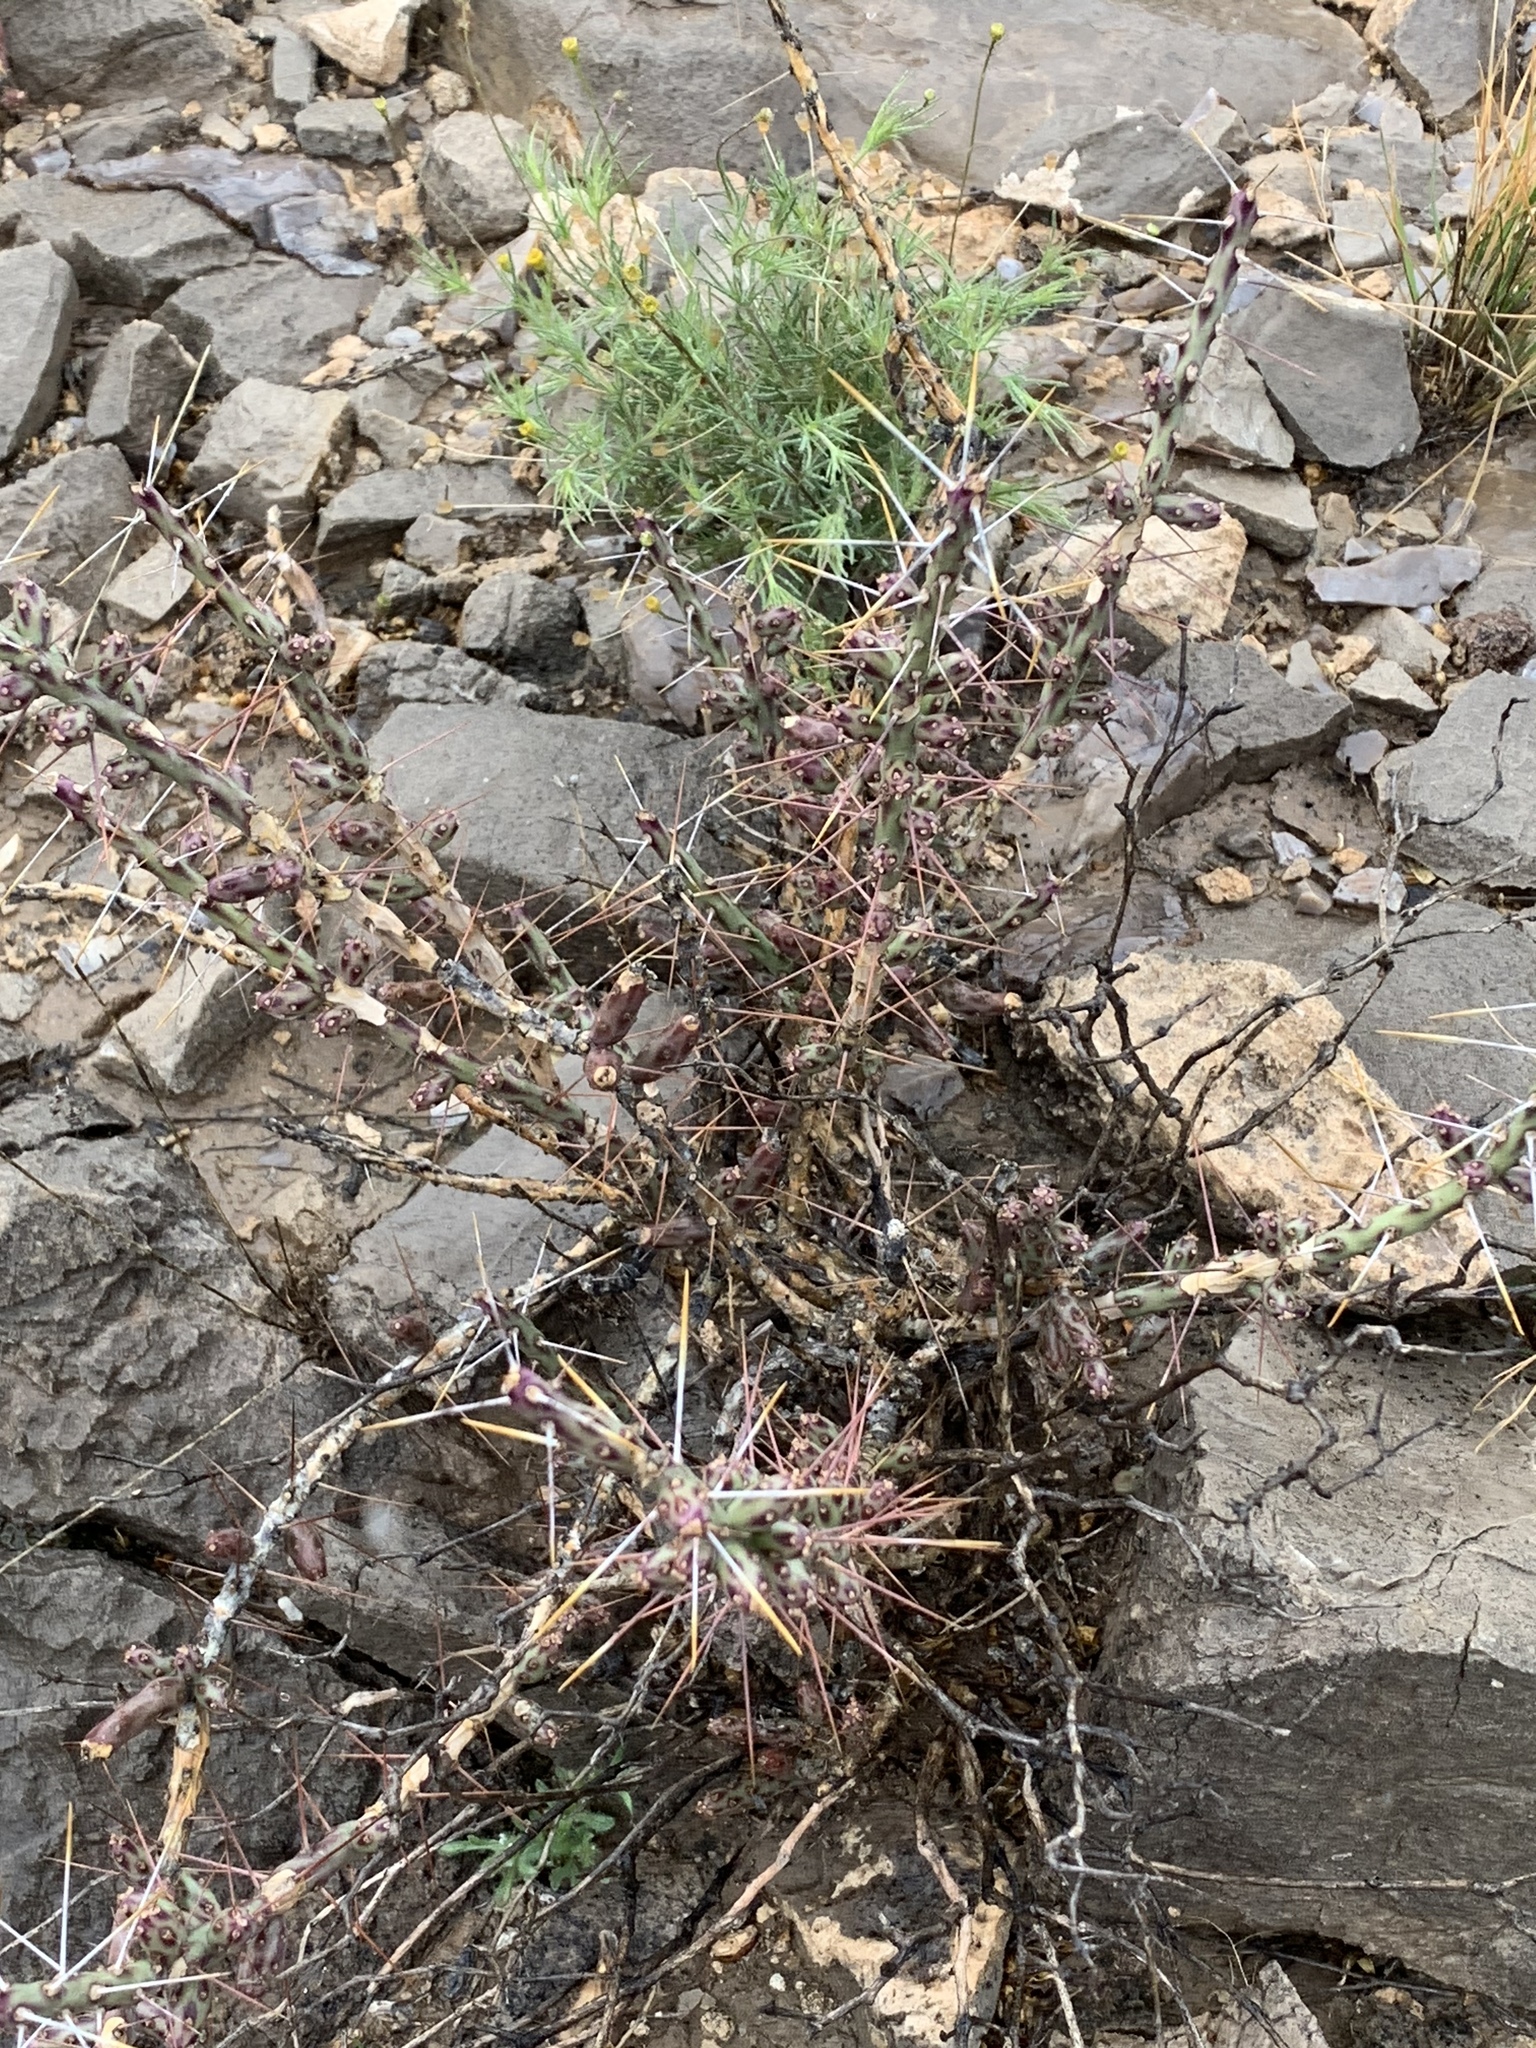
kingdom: Plantae
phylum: Tracheophyta
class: Magnoliopsida
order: Caryophyllales
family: Cactaceae
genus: Cylindropuntia
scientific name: Cylindropuntia leptocaulis
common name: Christmas cactus
